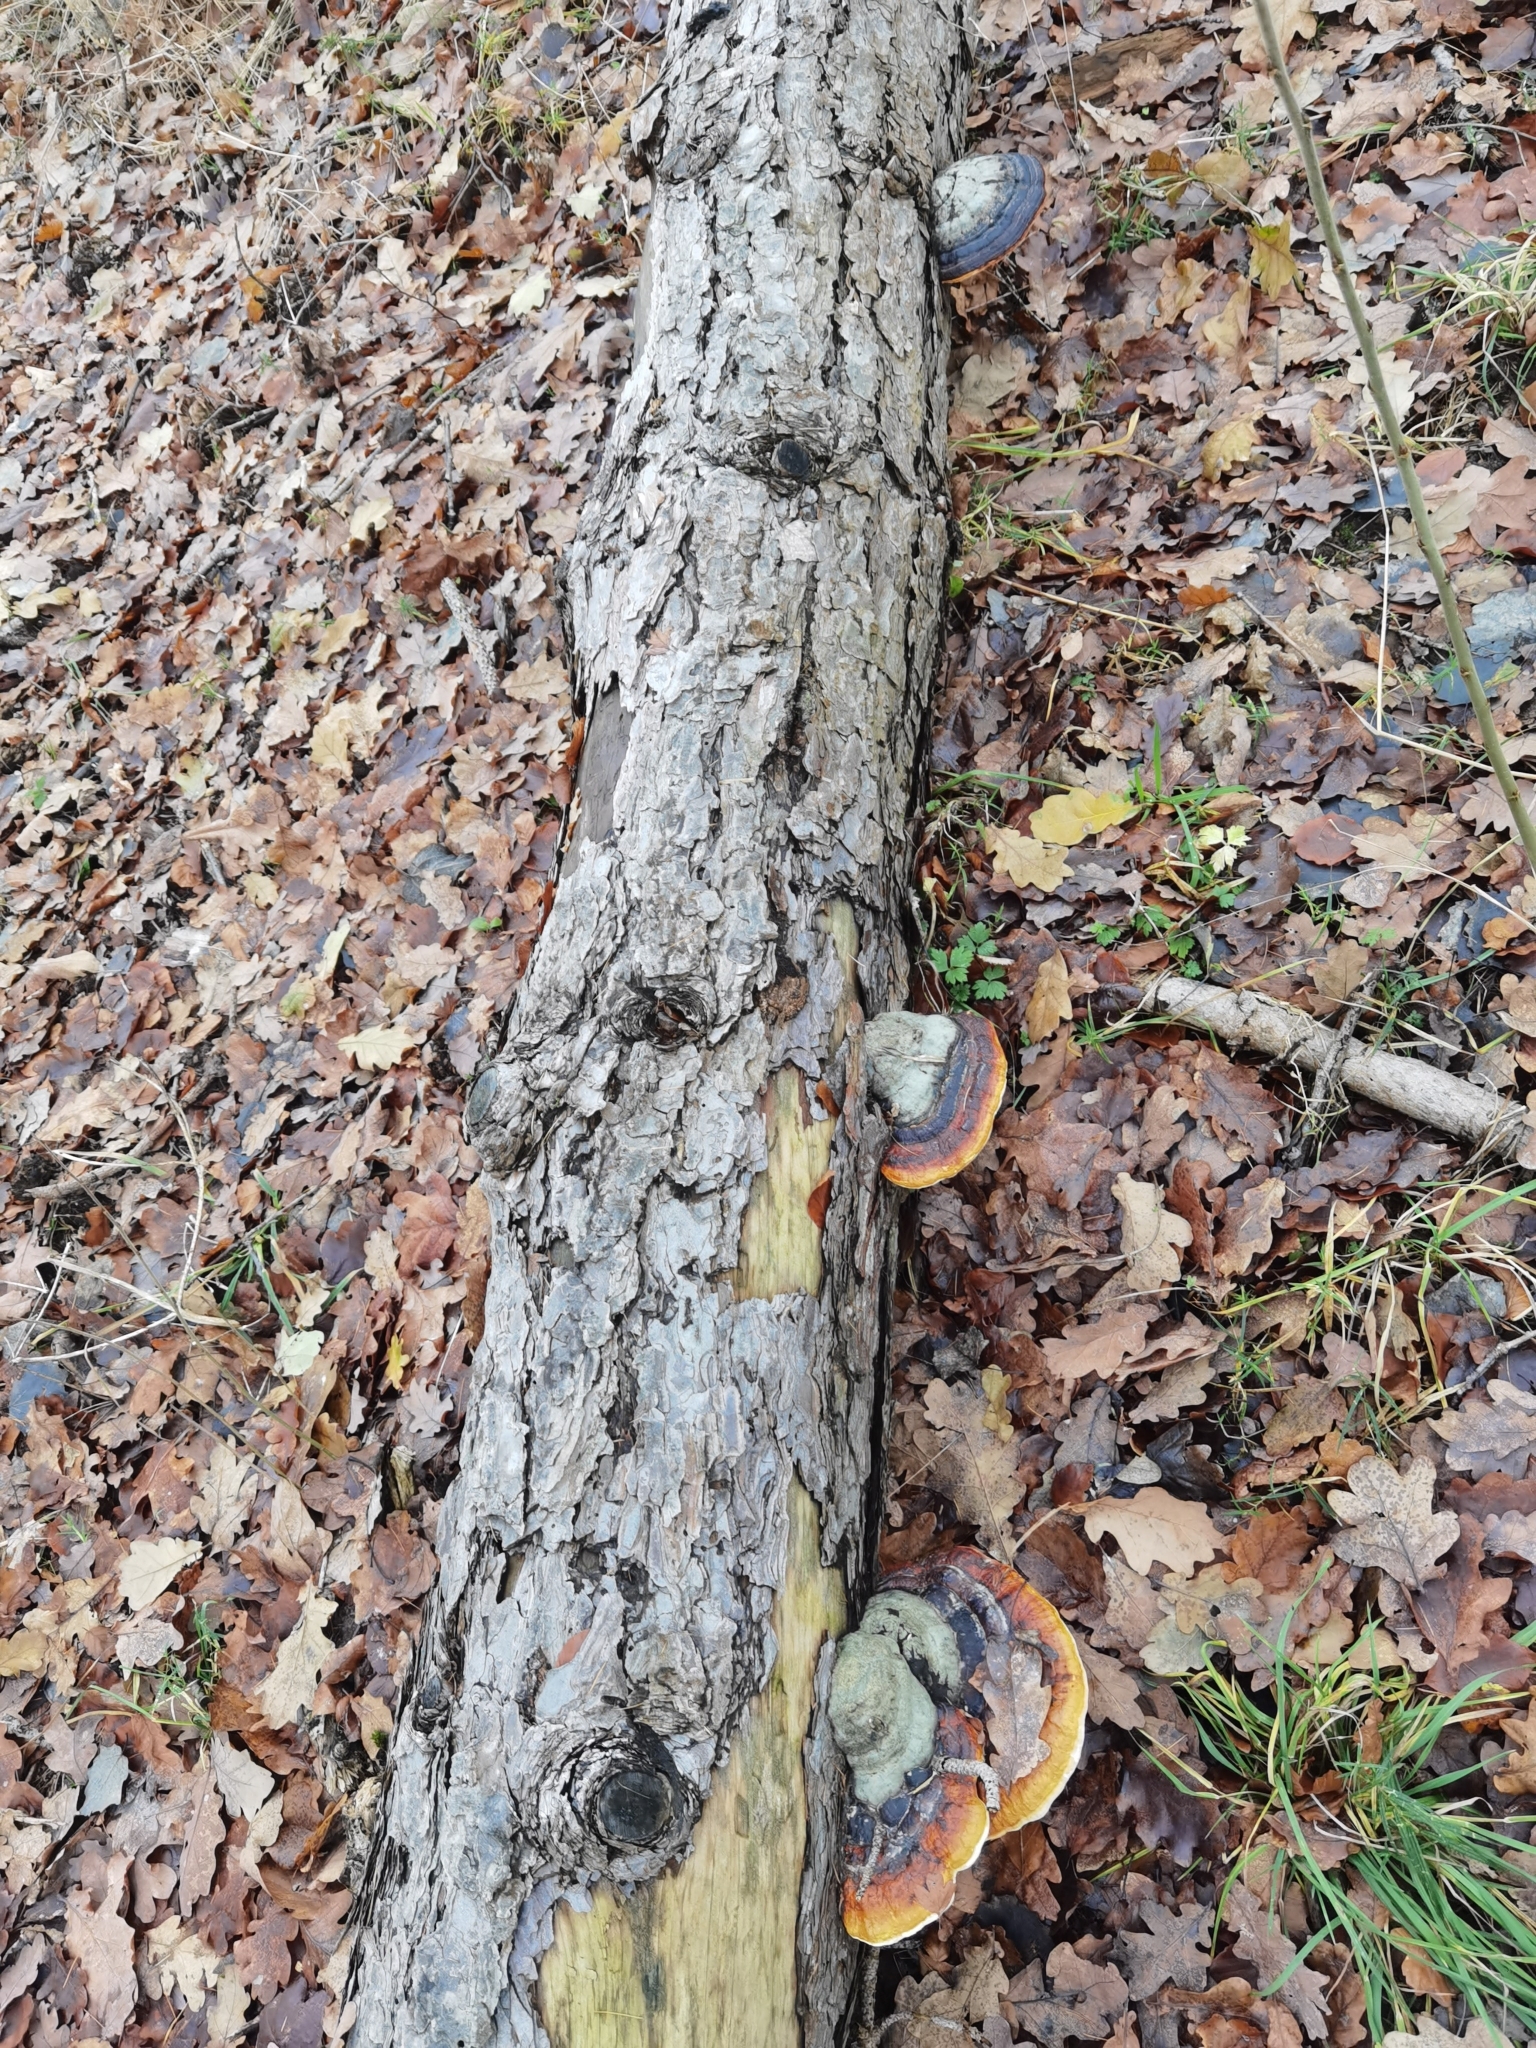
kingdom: Fungi
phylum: Basidiomycota
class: Agaricomycetes
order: Polyporales
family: Fomitopsidaceae
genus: Fomitopsis
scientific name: Fomitopsis pinicola
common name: Red-belted bracket
